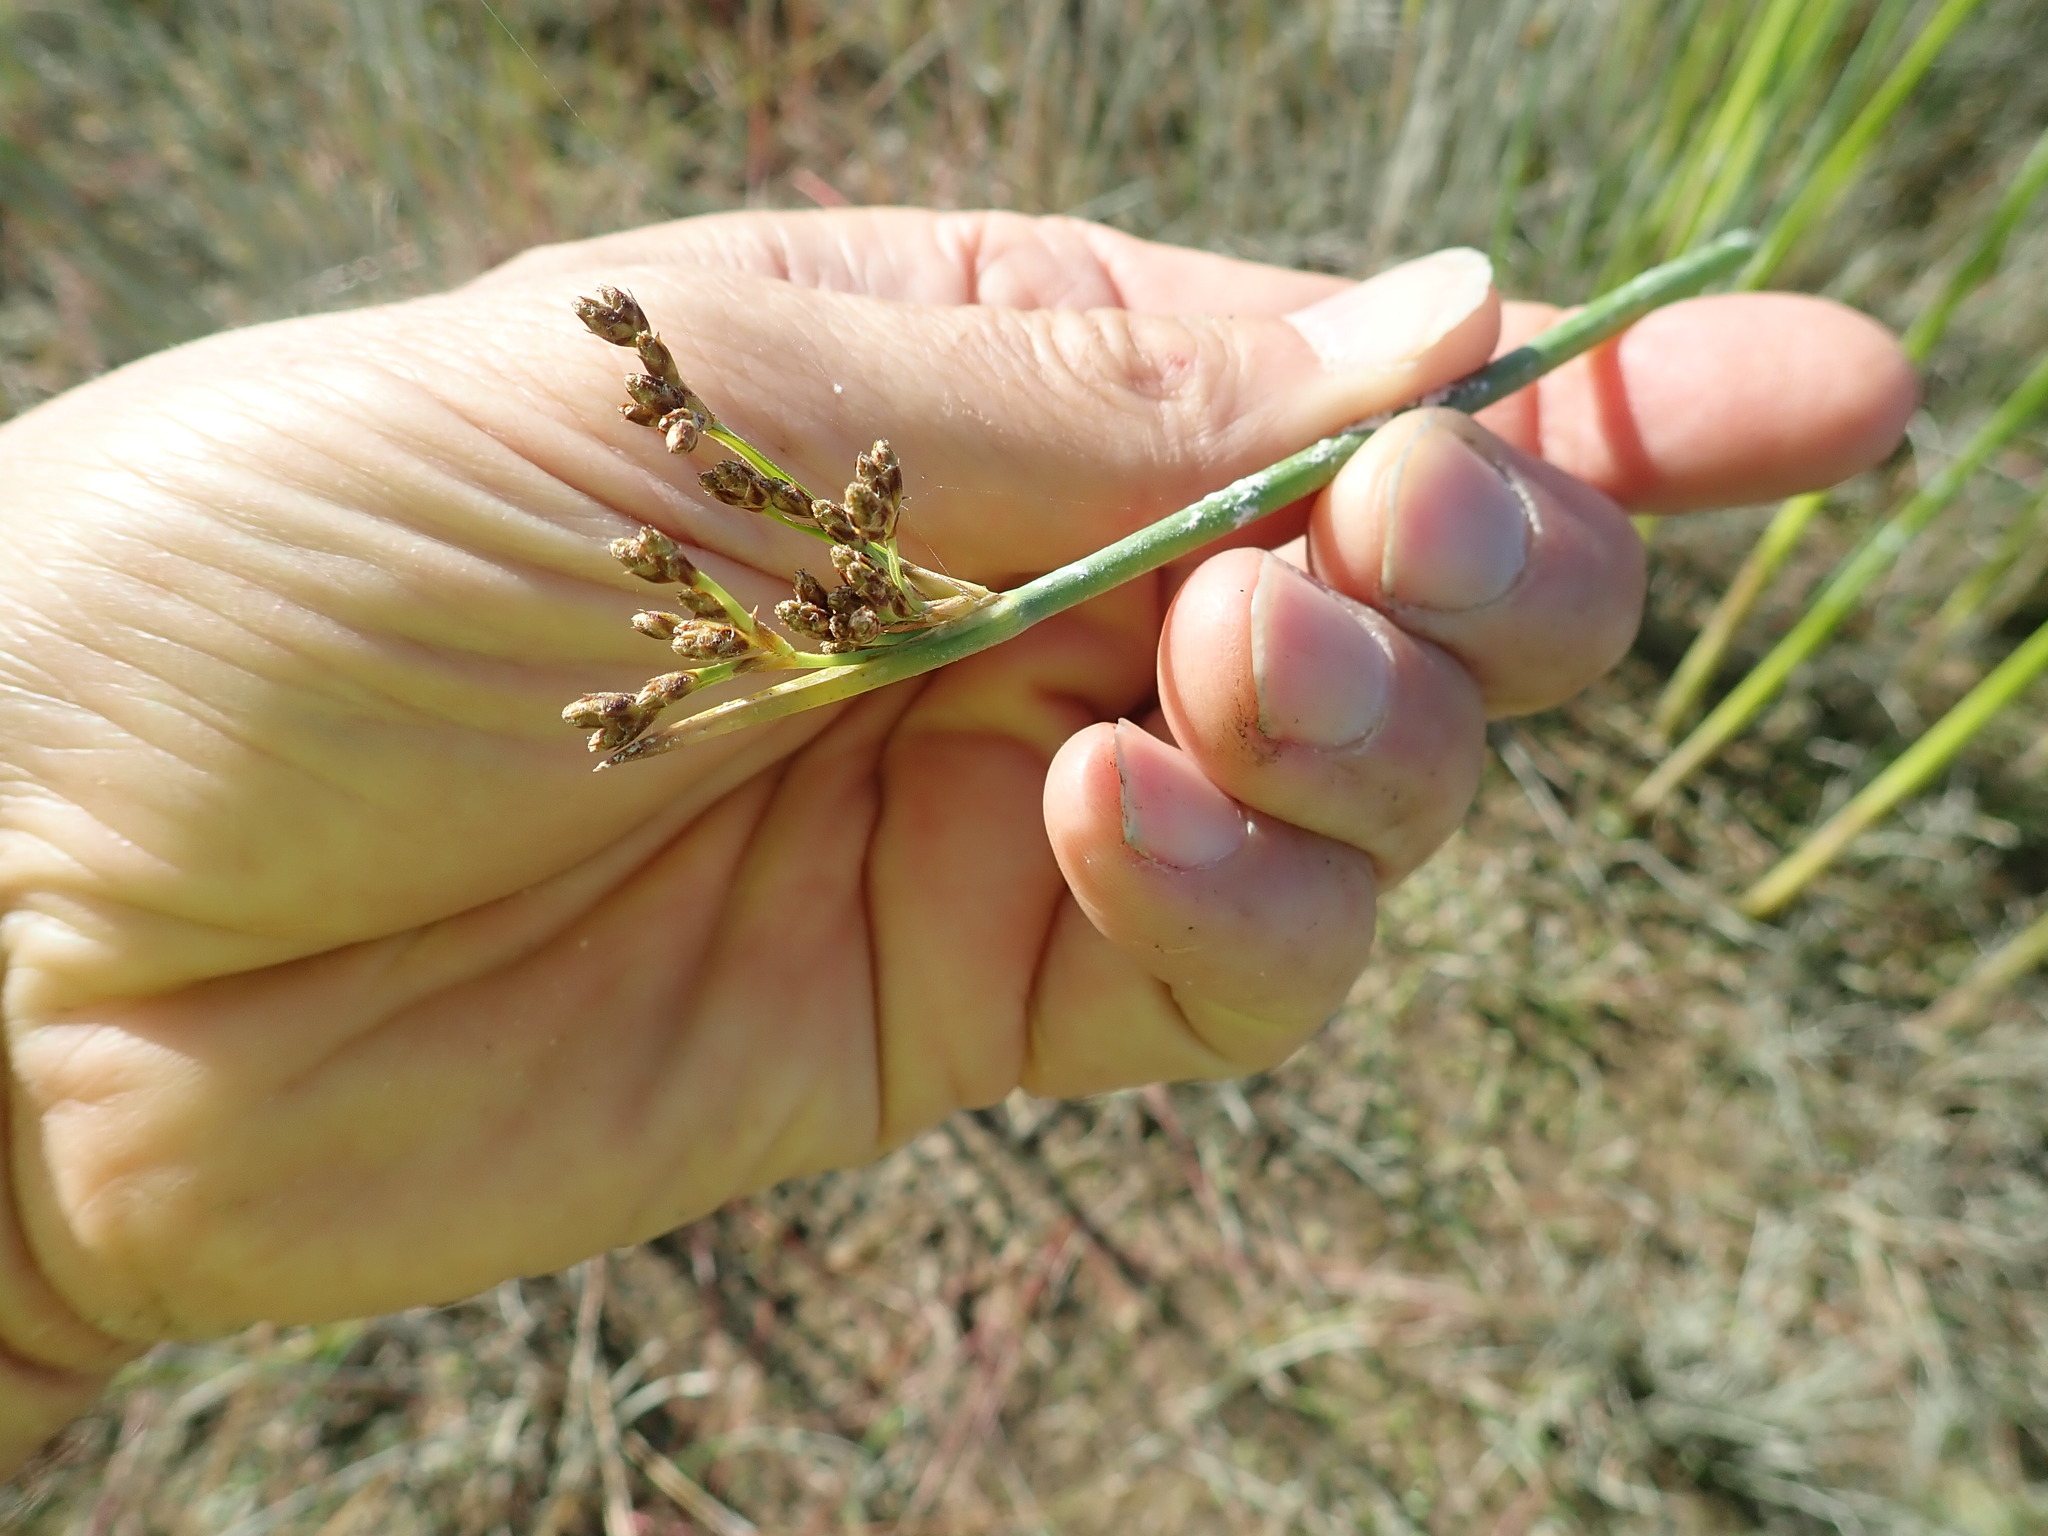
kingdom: Plantae
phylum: Tracheophyta
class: Liliopsida
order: Poales
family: Cyperaceae
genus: Schoenoplectus
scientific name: Schoenoplectus tabernaemontani
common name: Grey club-rush
